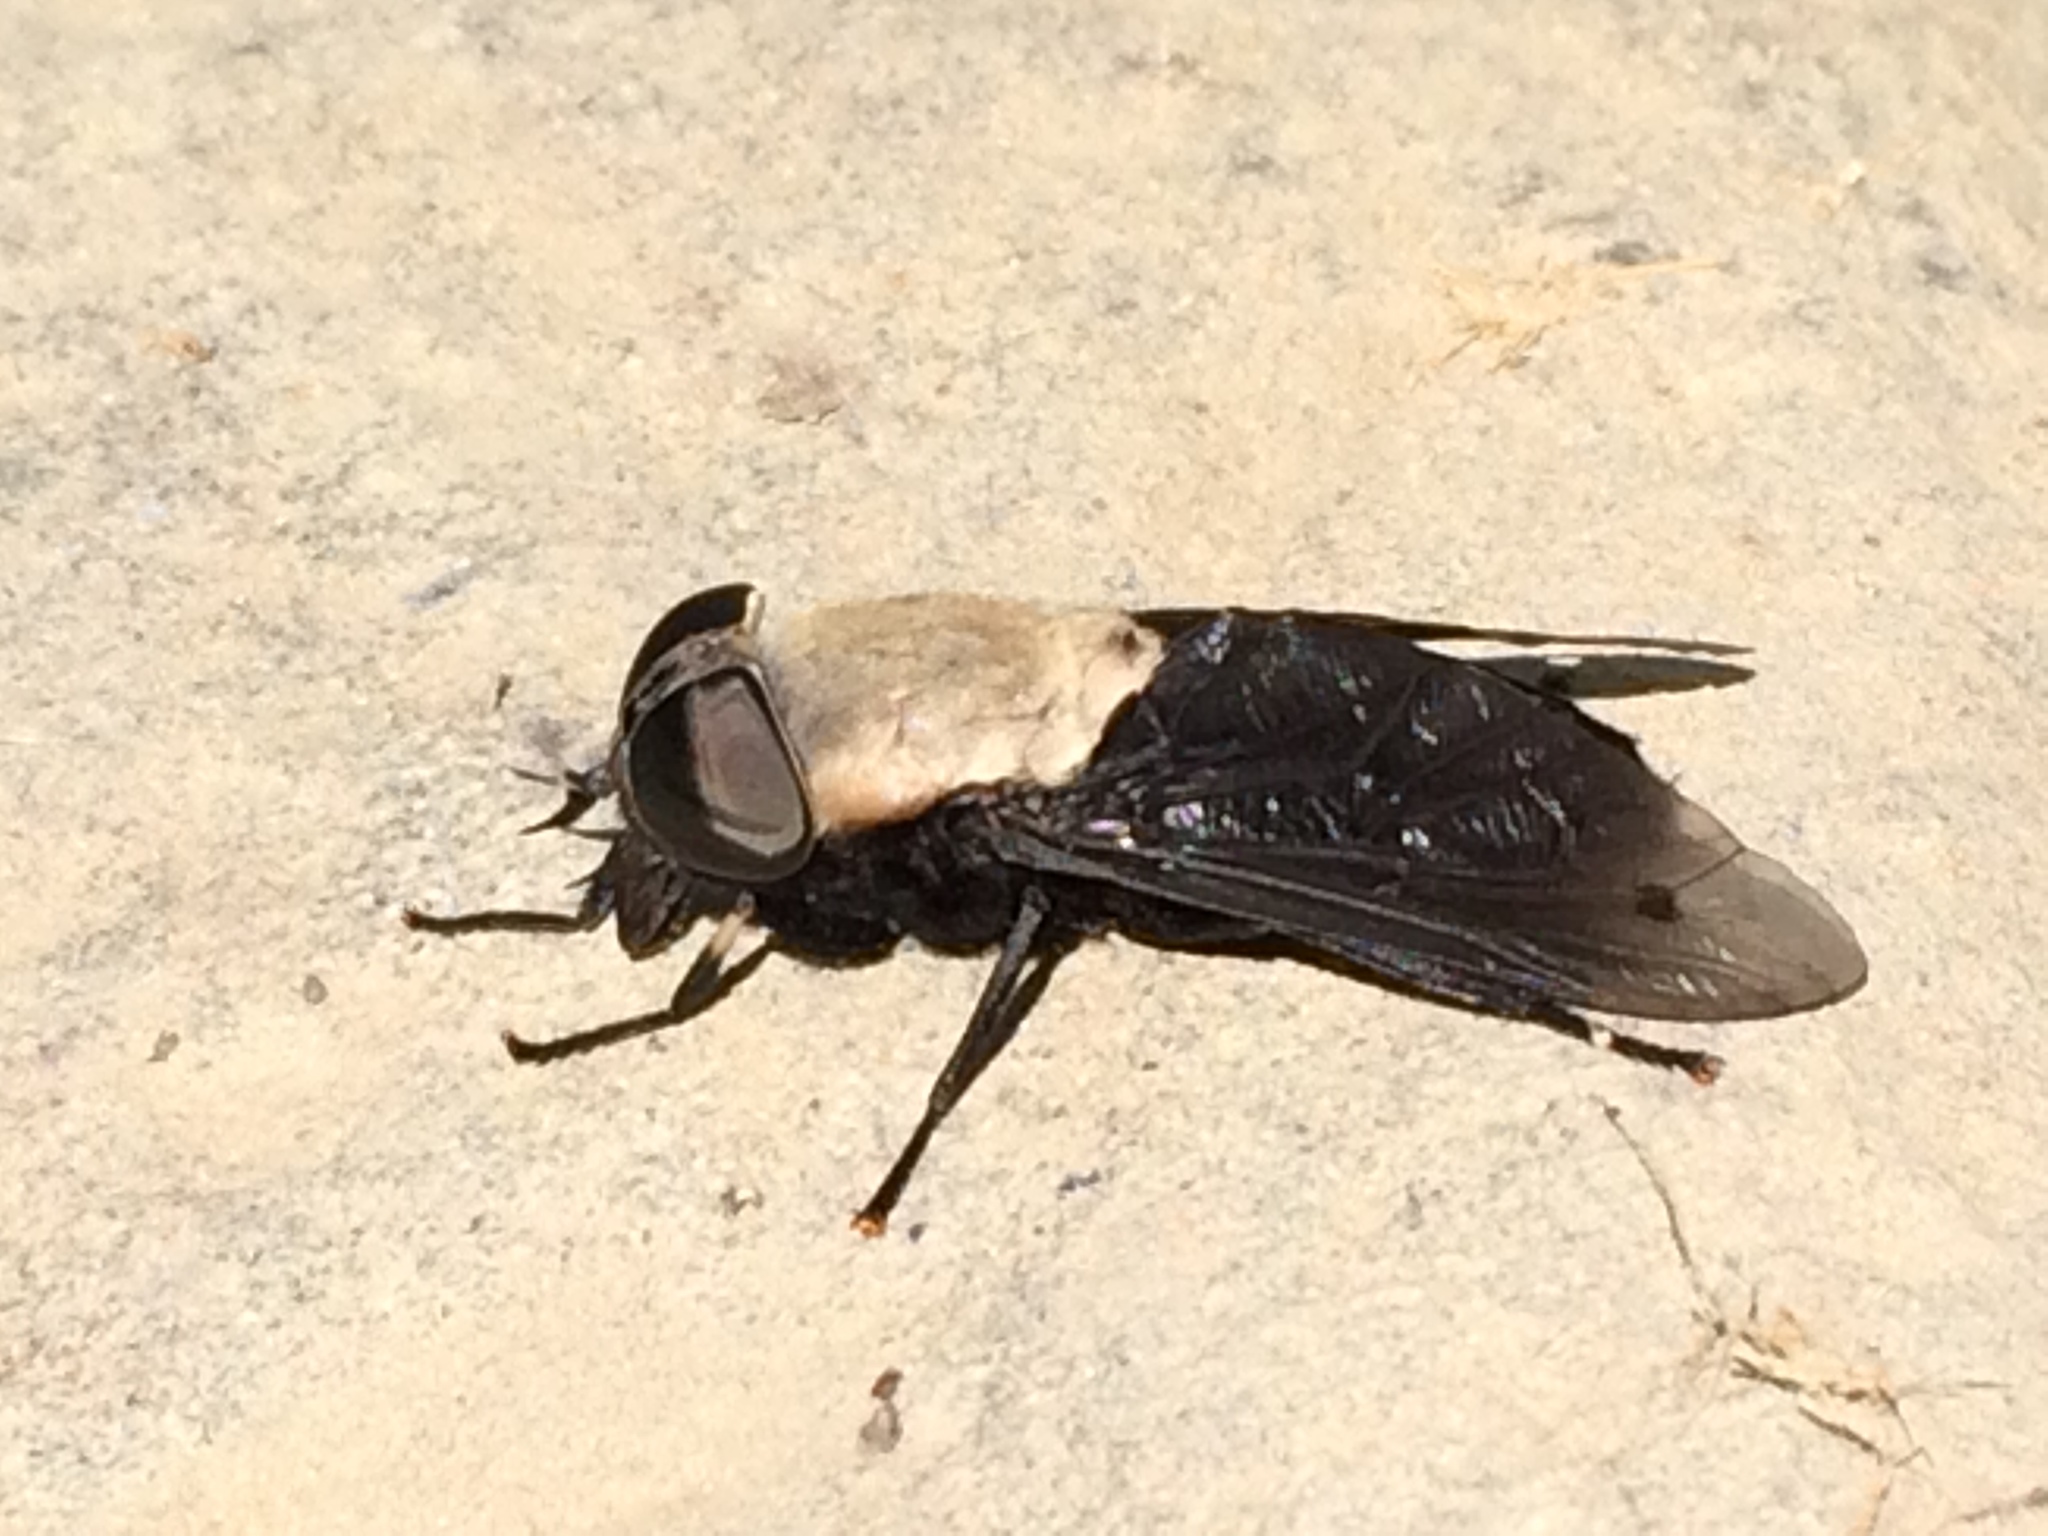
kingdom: Animalia
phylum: Arthropoda
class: Insecta
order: Diptera
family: Tabanidae
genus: Tabanus
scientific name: Tabanus punctifer
